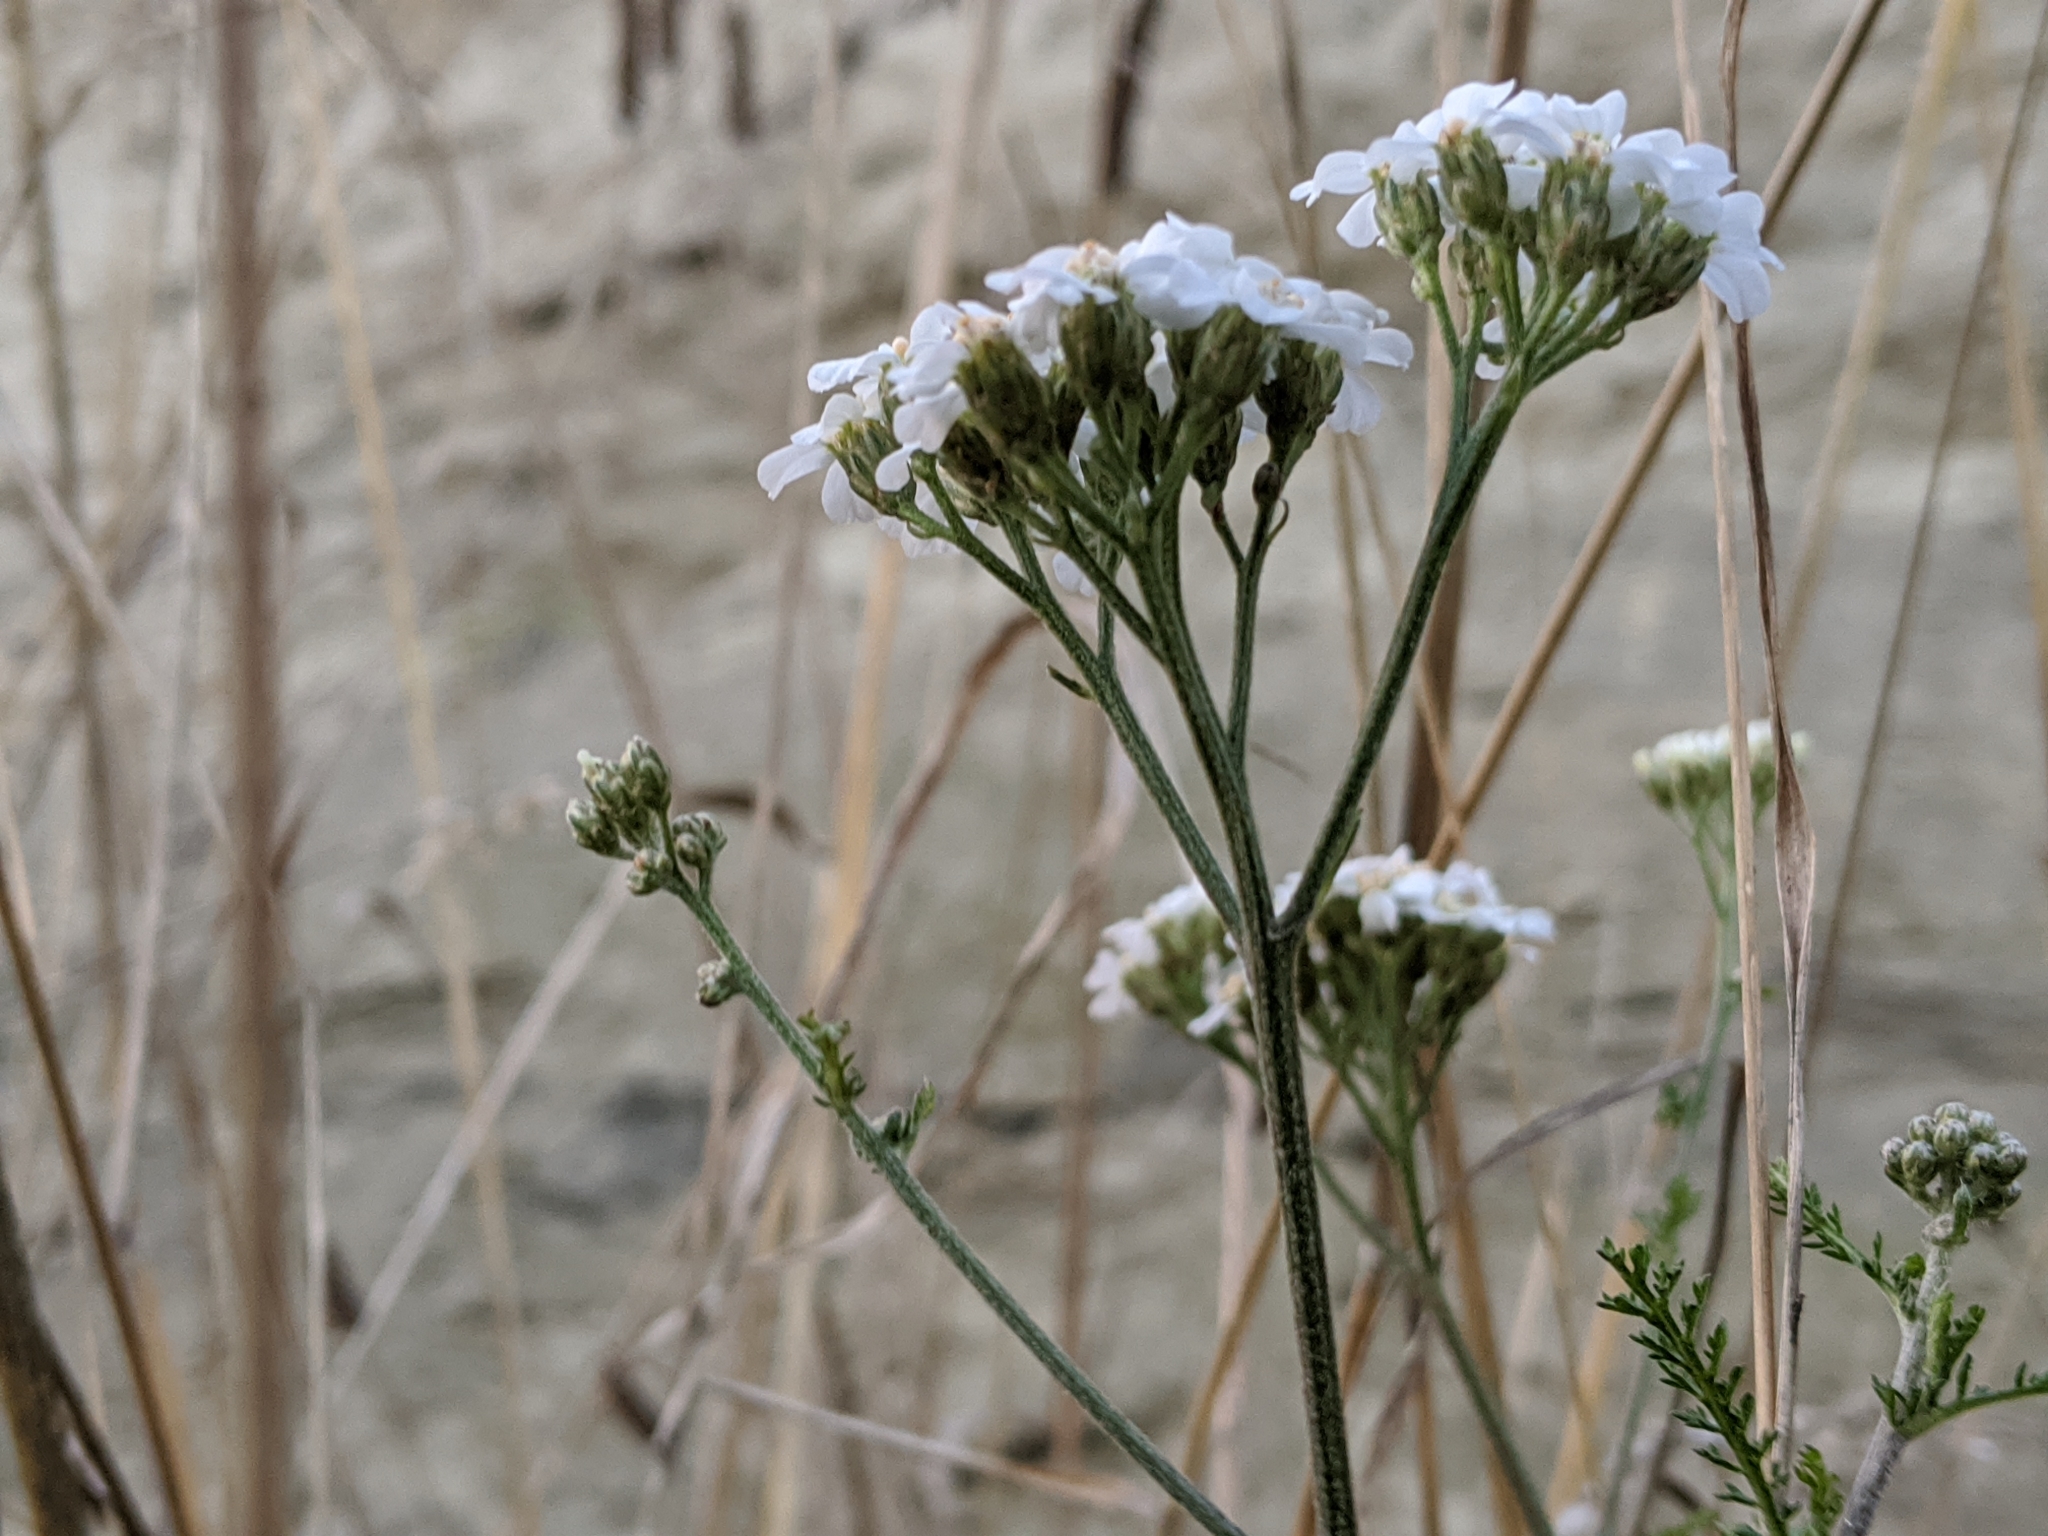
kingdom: Plantae
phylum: Tracheophyta
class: Magnoliopsida
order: Asterales
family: Asteraceae
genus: Achillea
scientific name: Achillea millefolium
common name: Yarrow
